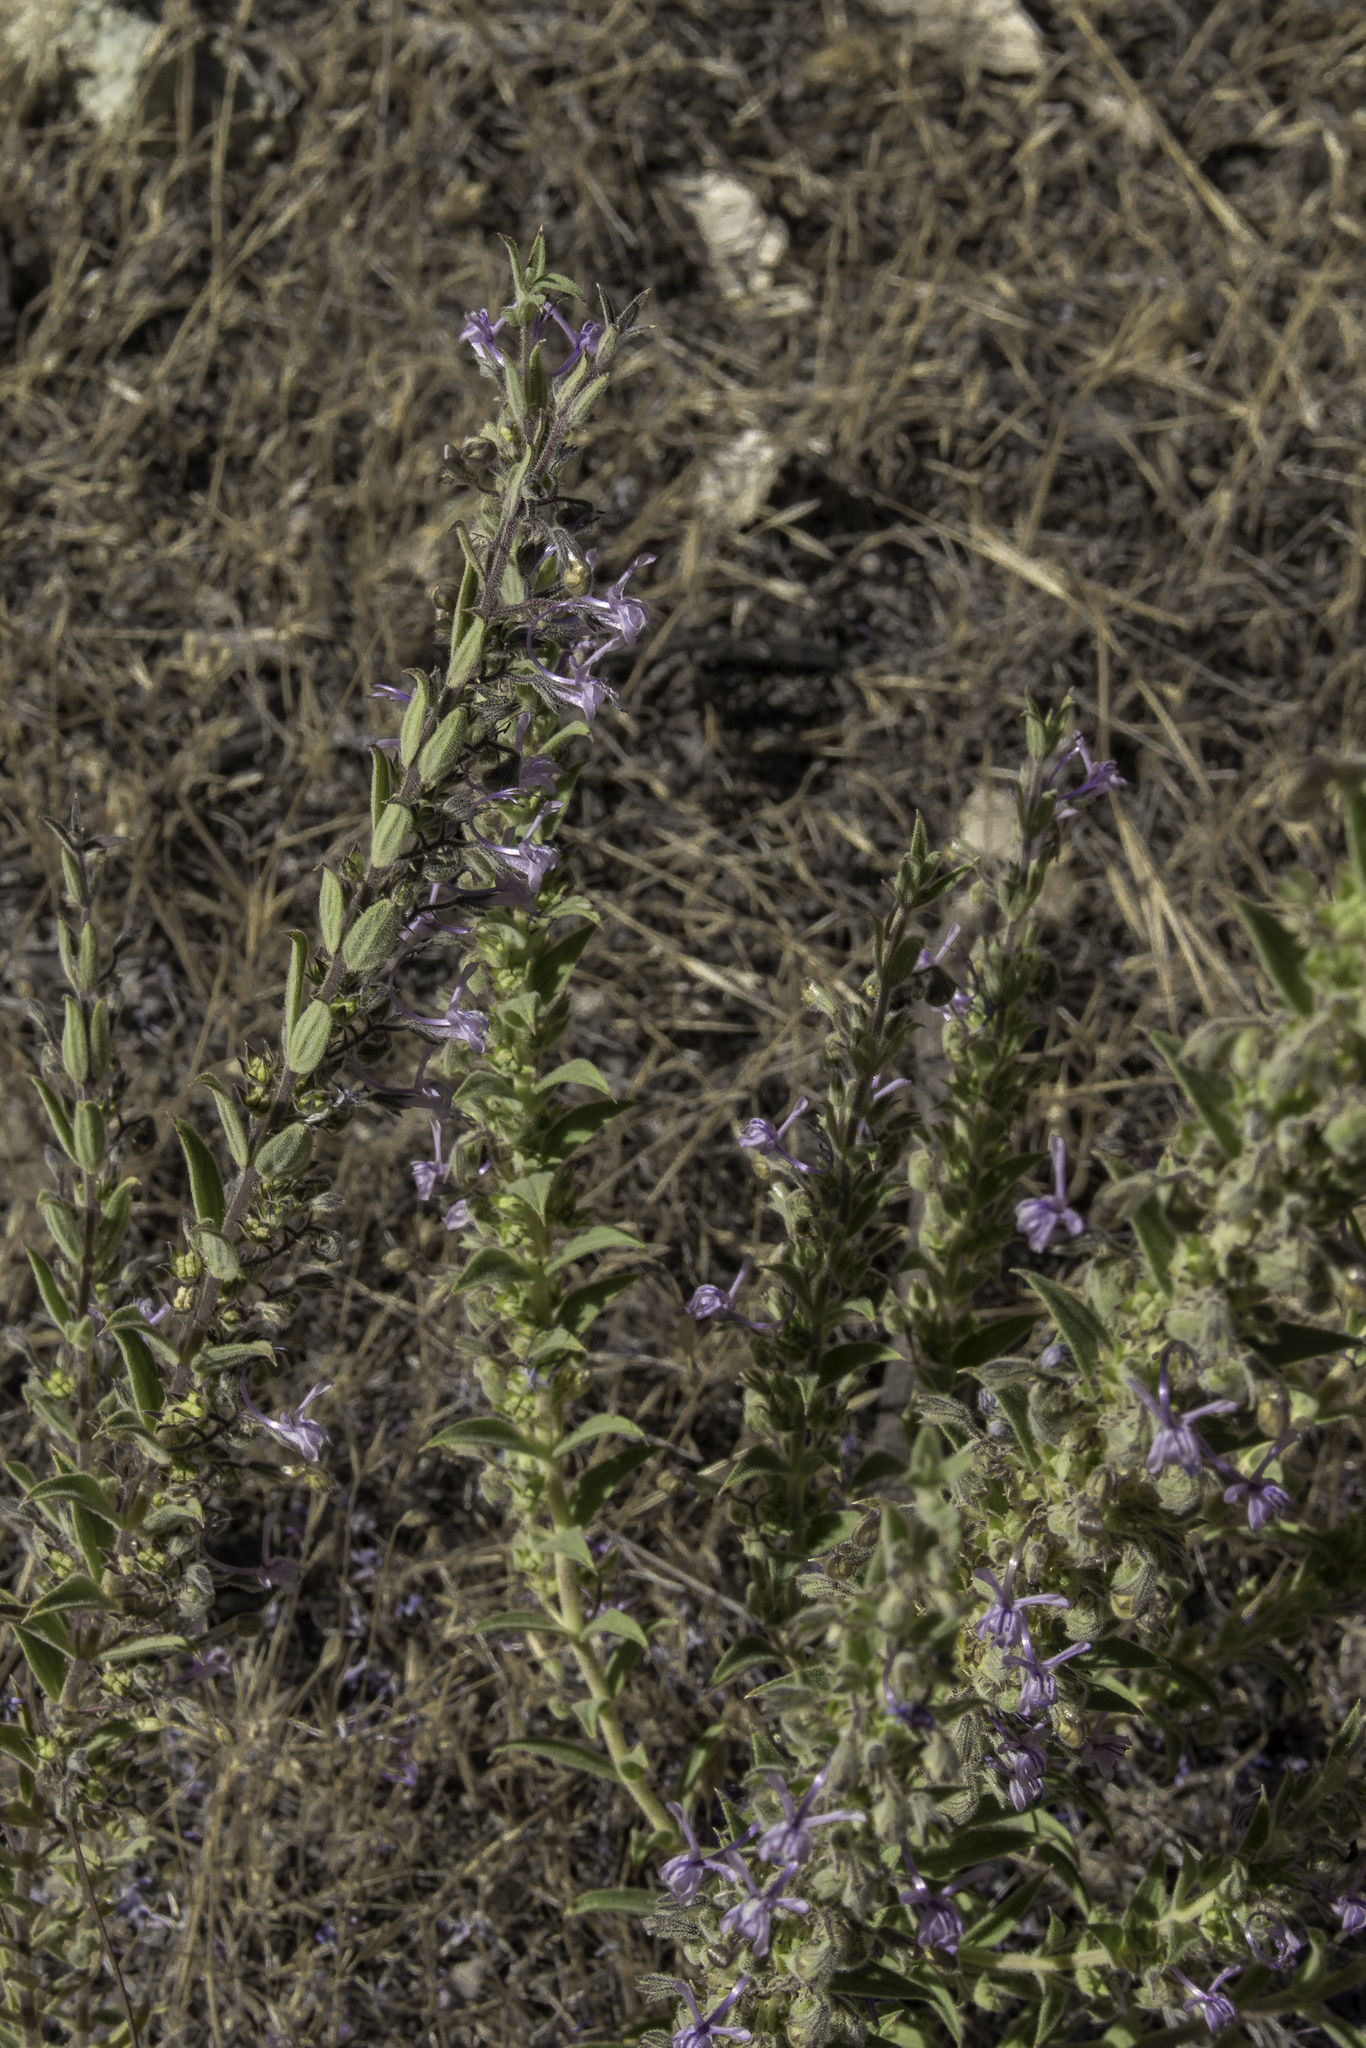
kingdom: Plantae
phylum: Tracheophyta
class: Magnoliopsida
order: Lamiales
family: Lamiaceae
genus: Trichostema
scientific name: Trichostema lanceolatum
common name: Vinegar-weed
